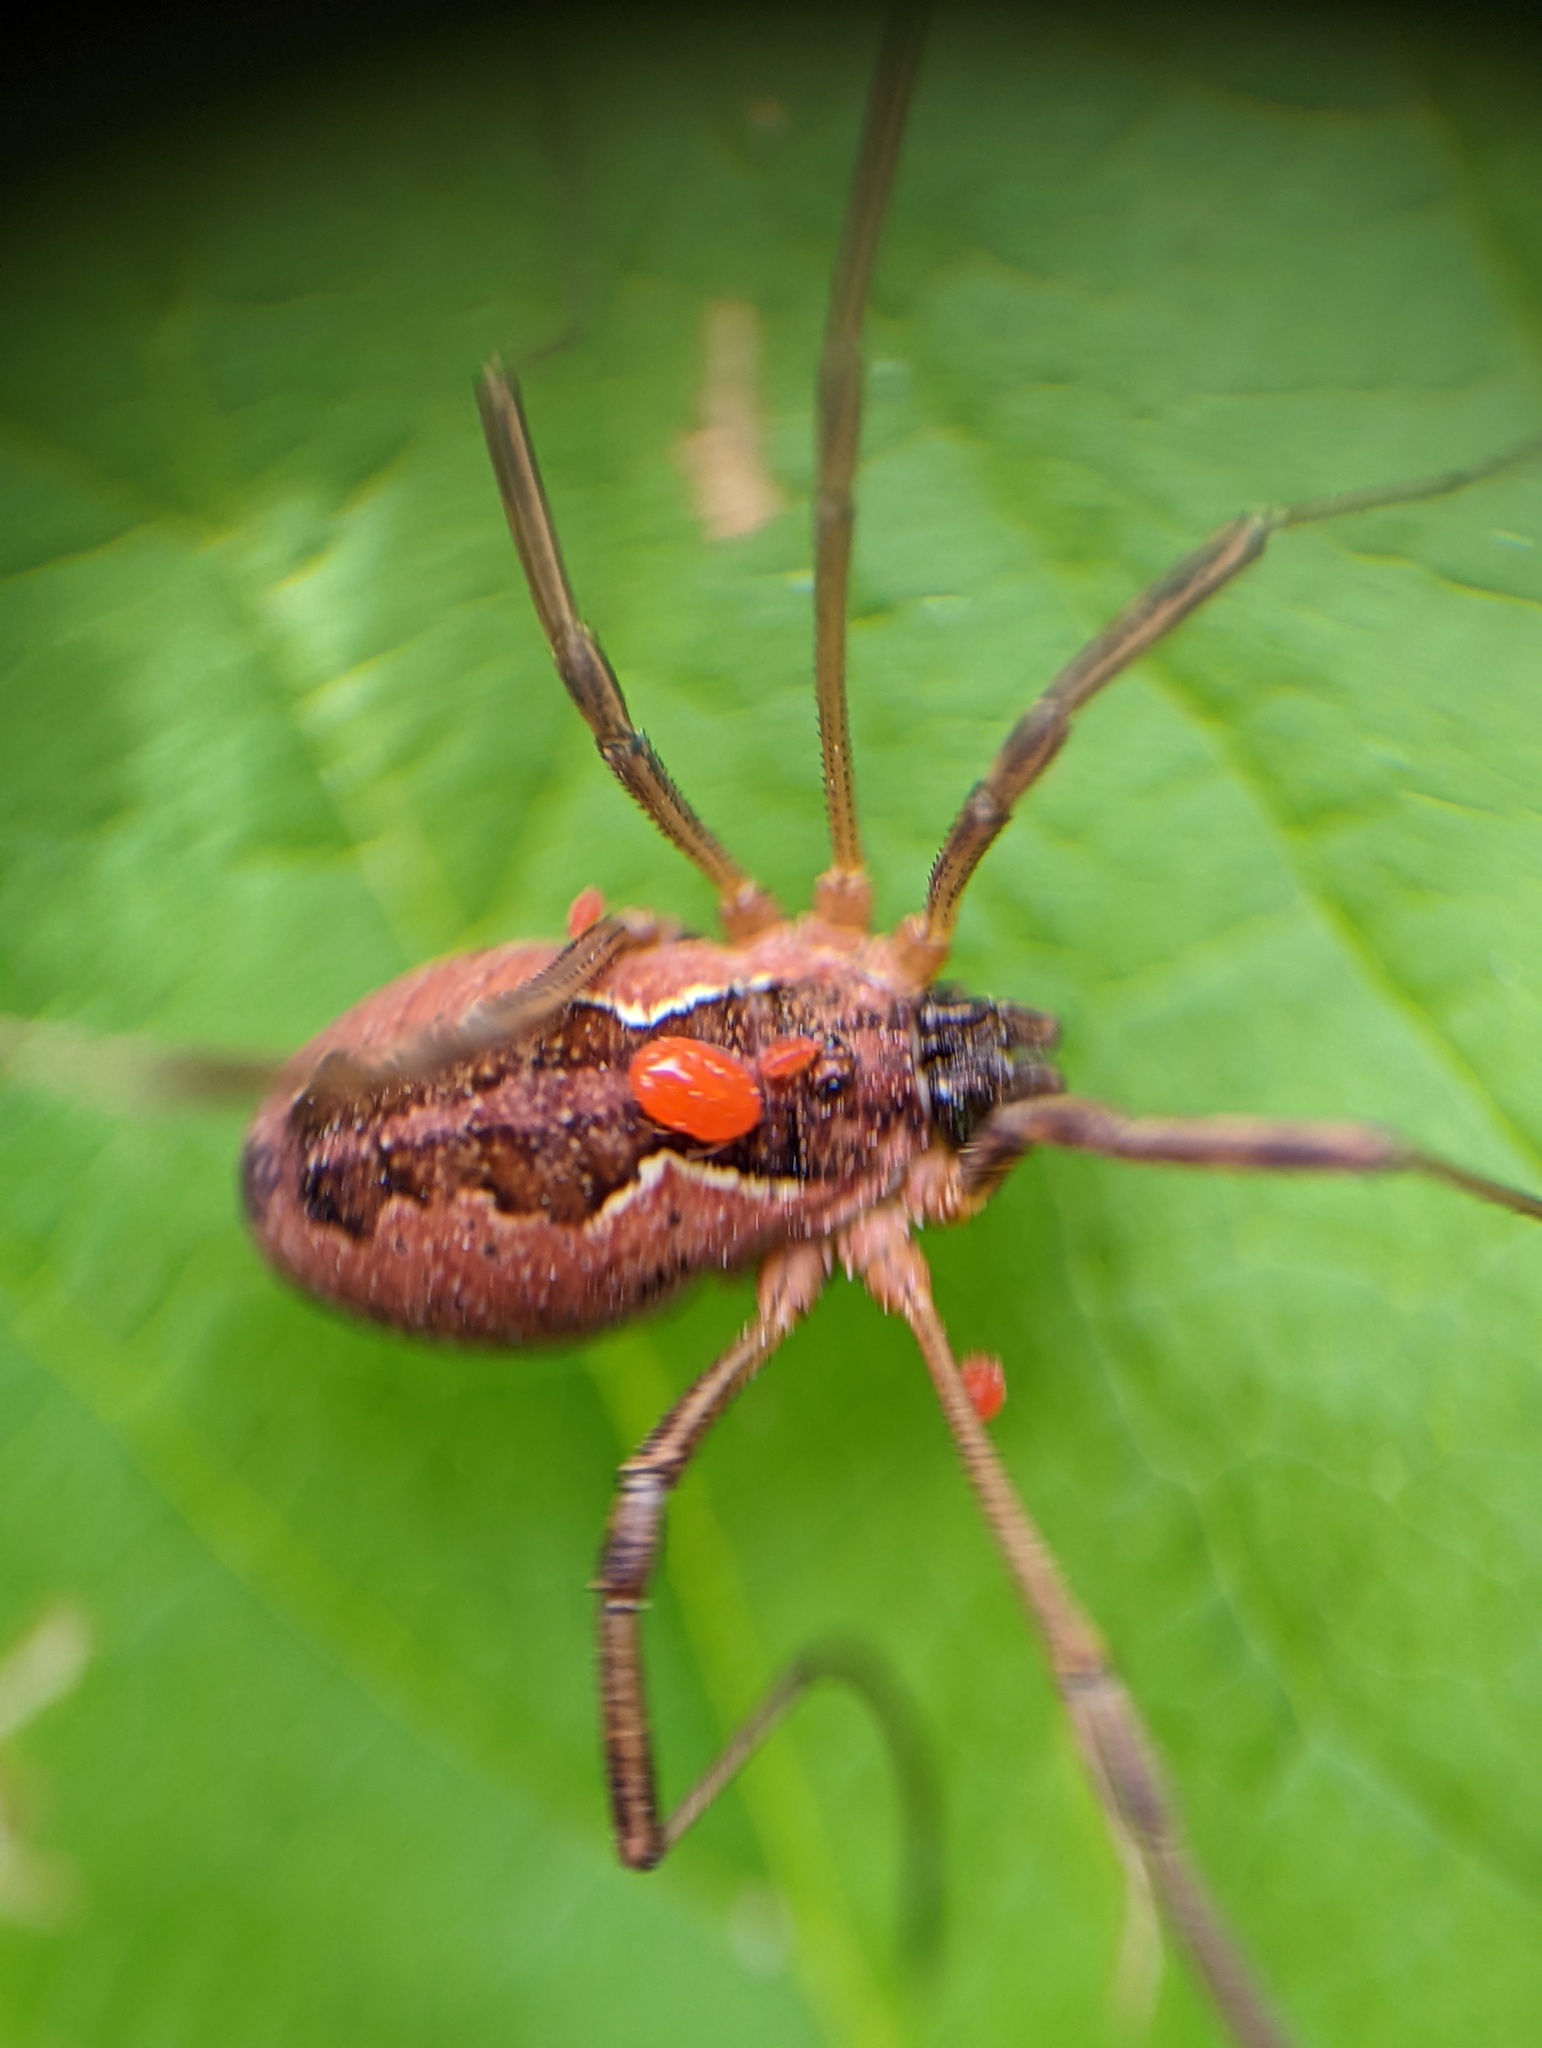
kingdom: Animalia
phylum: Arthropoda
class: Arachnida
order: Opiliones
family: Phalangiidae
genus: Mitopus
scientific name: Mitopus morio
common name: Saddleback harvestman
